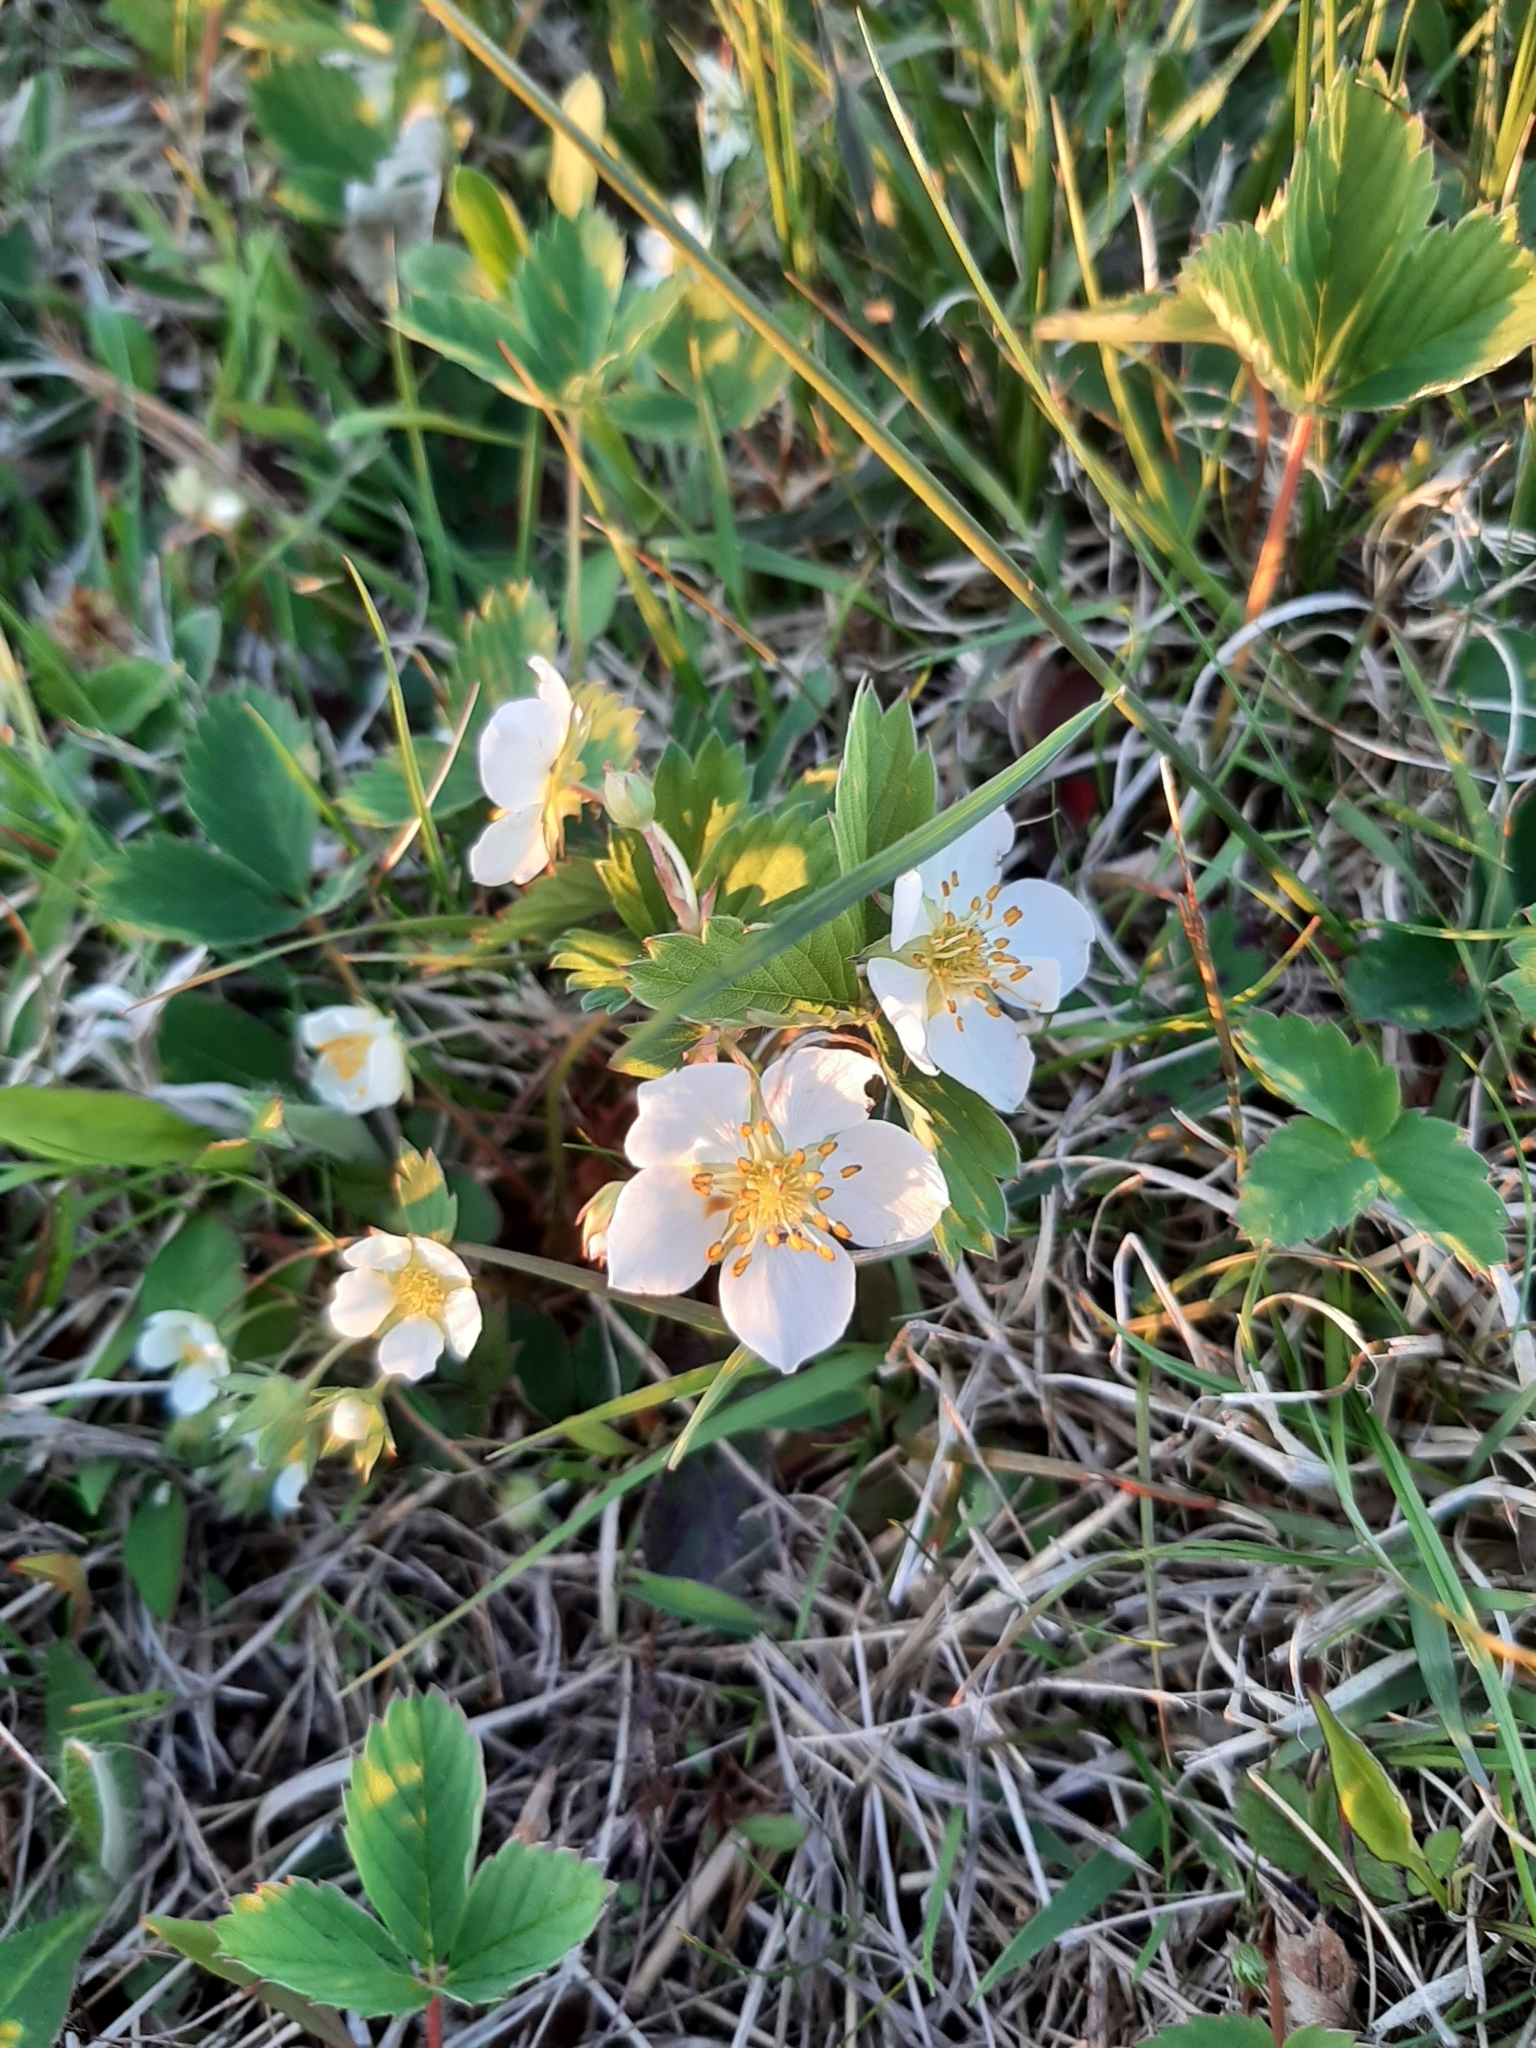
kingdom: Plantae
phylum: Tracheophyta
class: Magnoliopsida
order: Rosales
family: Rosaceae
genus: Fragaria
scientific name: Fragaria virginiana
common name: Thickleaved wild strawberry
